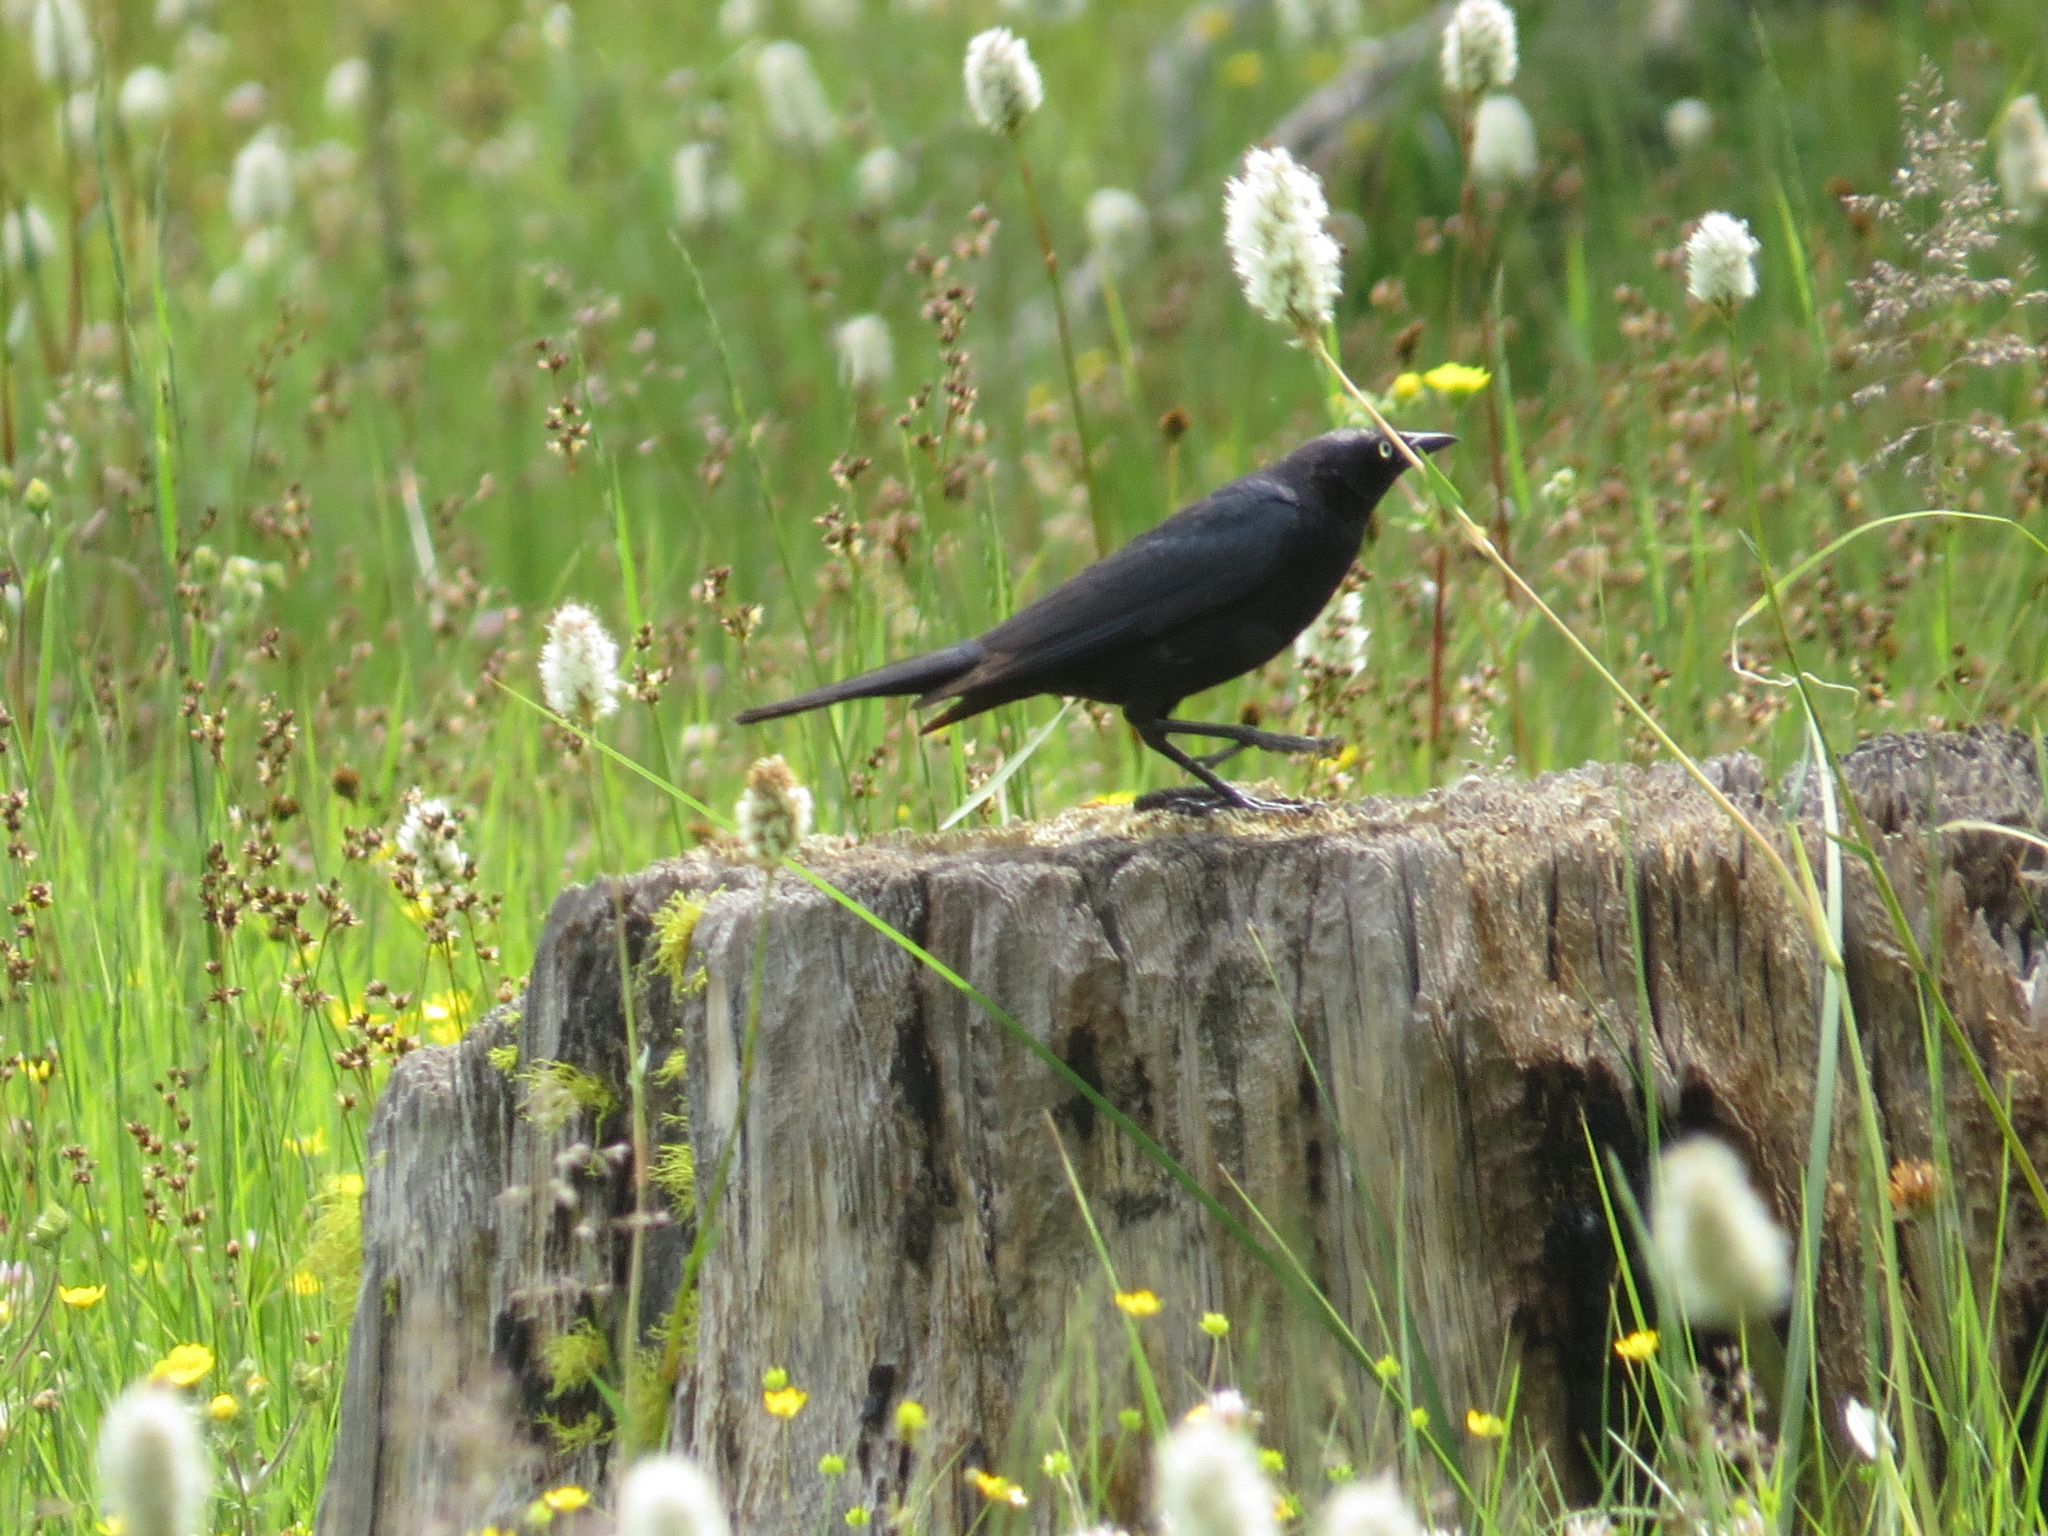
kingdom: Animalia
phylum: Chordata
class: Aves
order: Passeriformes
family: Icteridae
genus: Euphagus
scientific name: Euphagus cyanocephalus
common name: Brewer's blackbird
